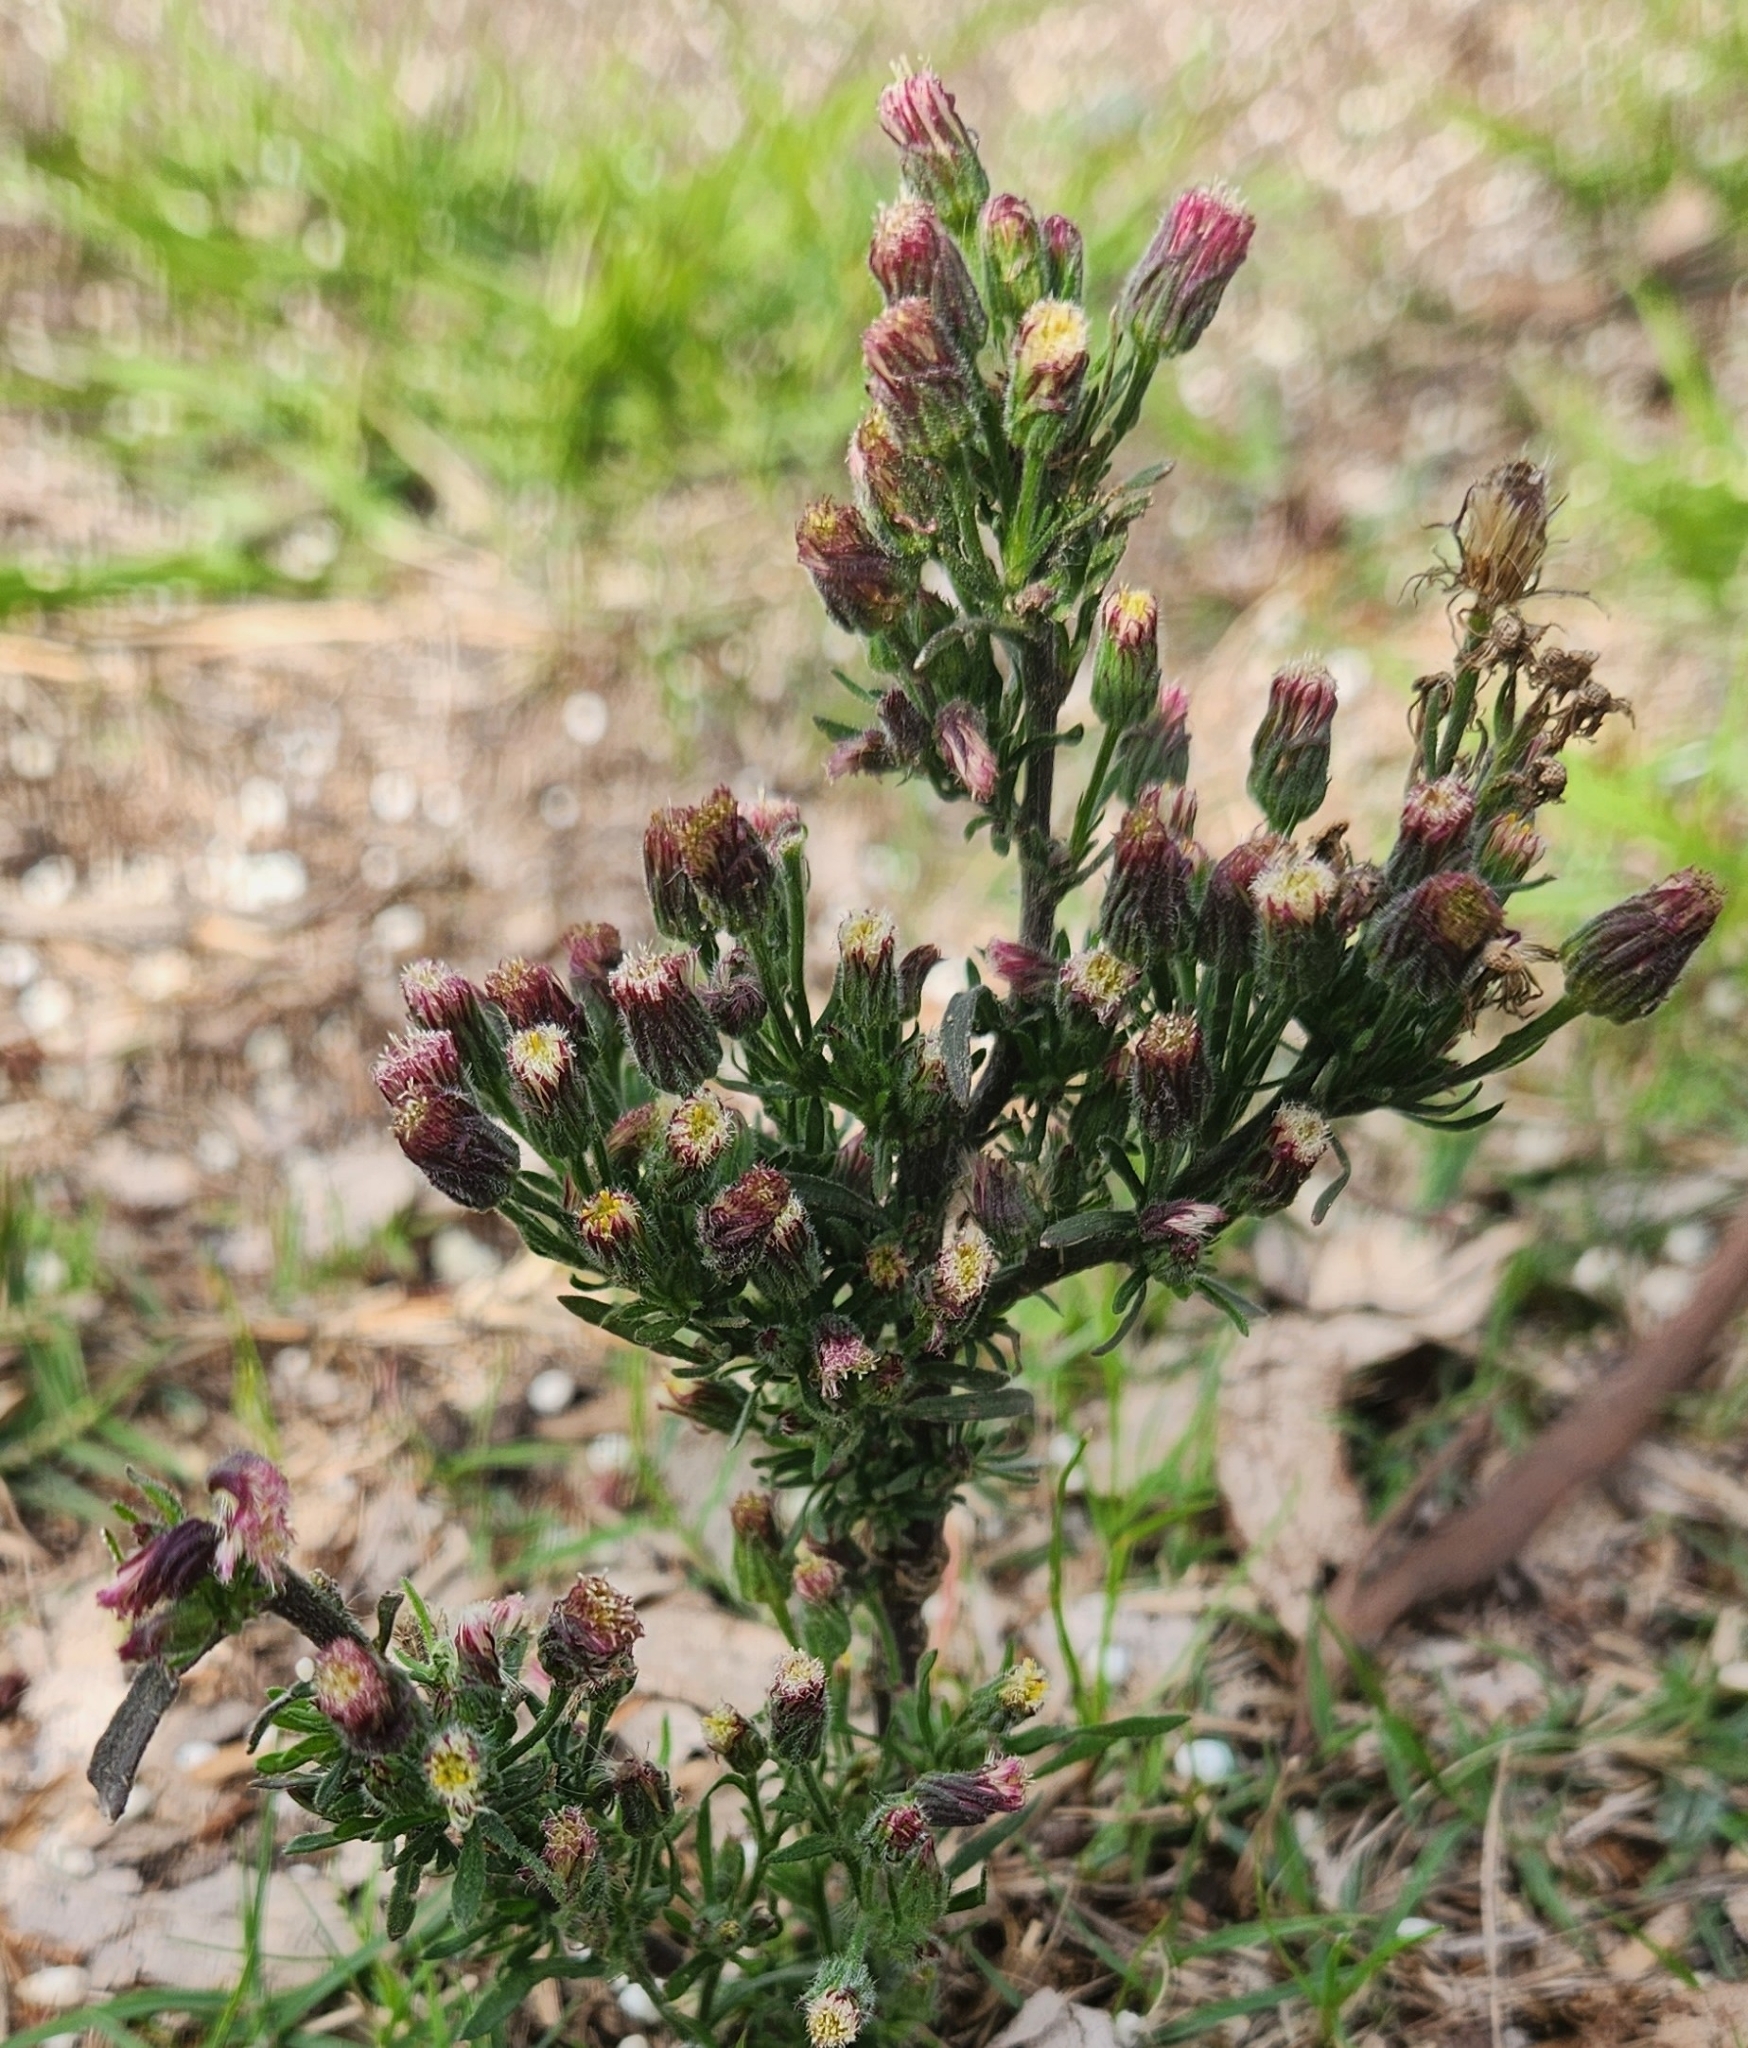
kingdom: Plantae
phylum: Tracheophyta
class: Magnoliopsida
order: Asterales
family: Asteraceae
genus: Erigeron
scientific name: Erigeron bonariensis
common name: Argentine fleabane
